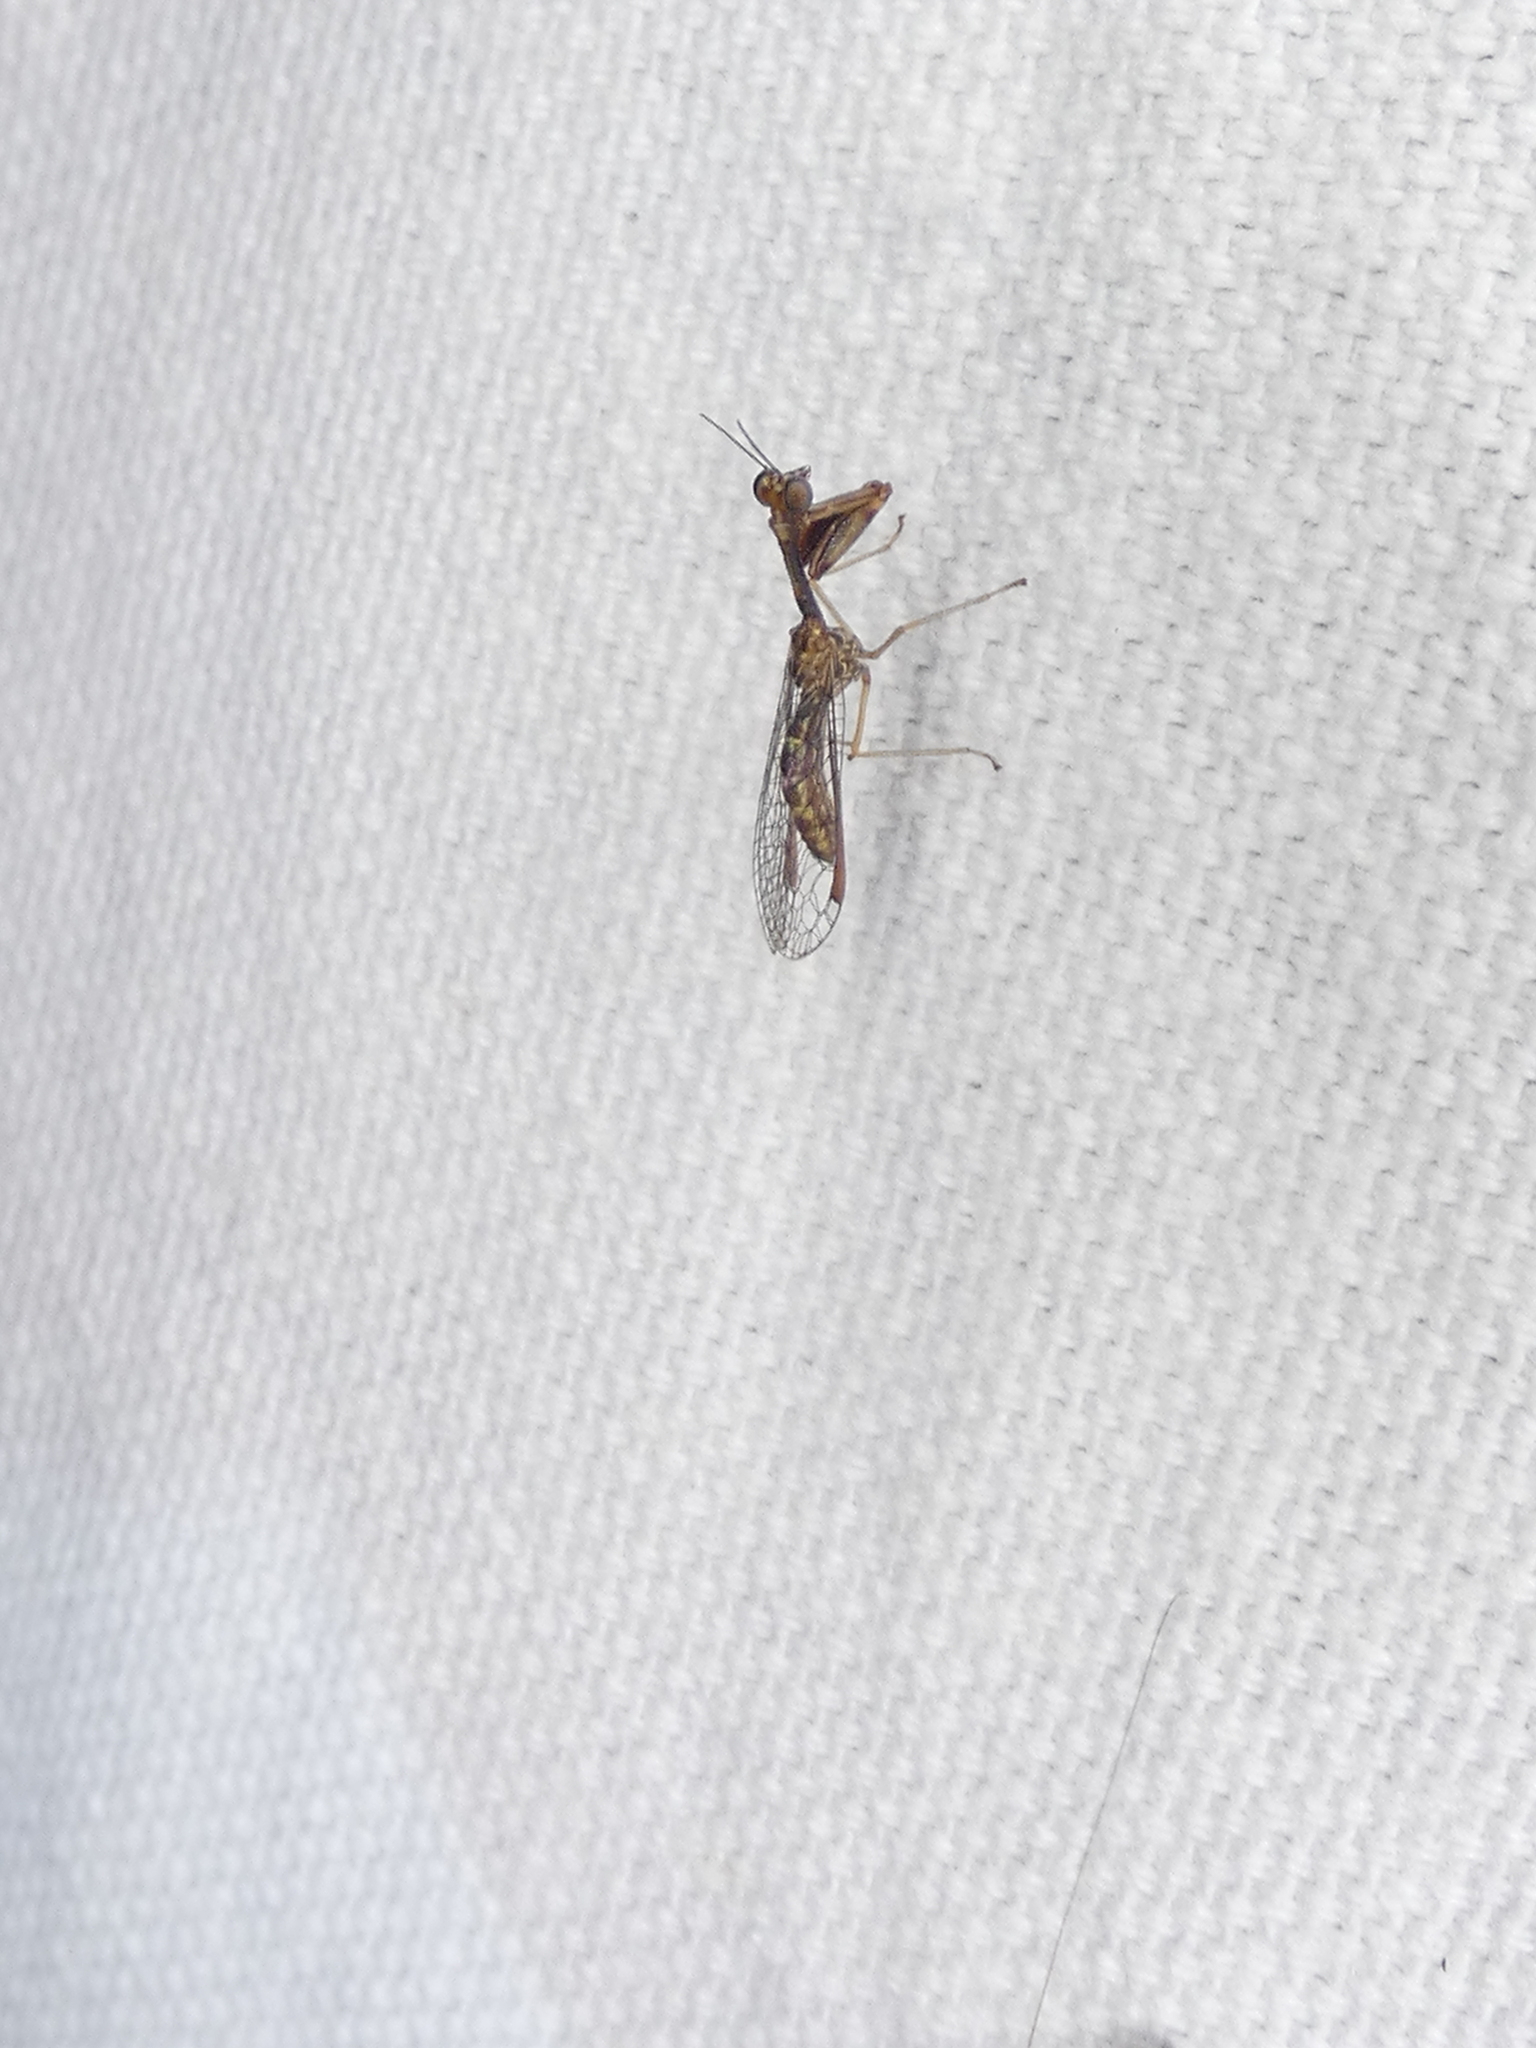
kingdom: Animalia
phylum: Arthropoda
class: Insecta
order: Neuroptera
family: Mantispidae
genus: Leptomantispa
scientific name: Leptomantispa pulchella
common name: Stevens's mantidfly
